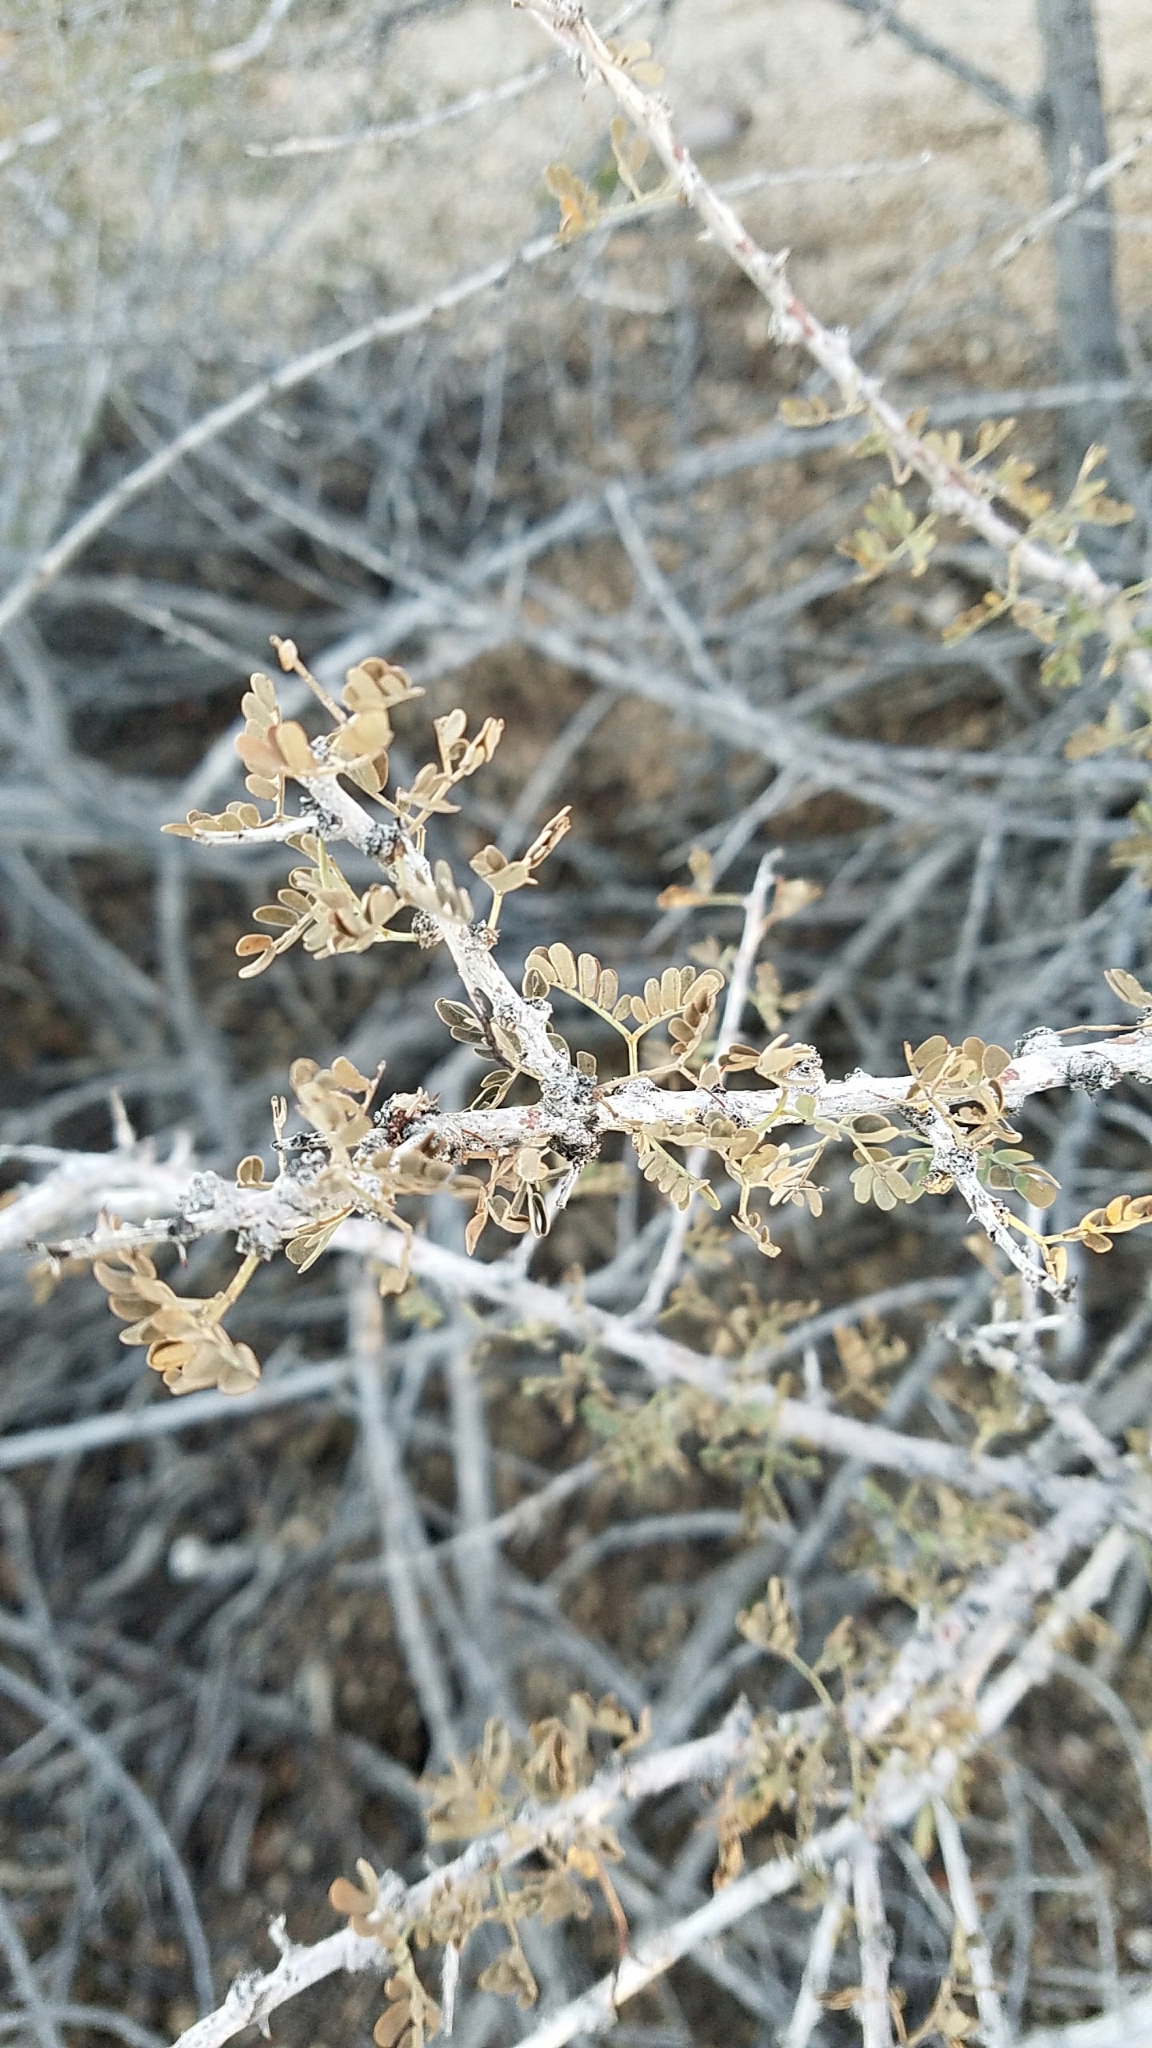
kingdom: Plantae
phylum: Tracheophyta
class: Magnoliopsida
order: Fabales
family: Fabaceae
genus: Senegalia
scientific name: Senegalia greggii
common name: Texas-mimosa
